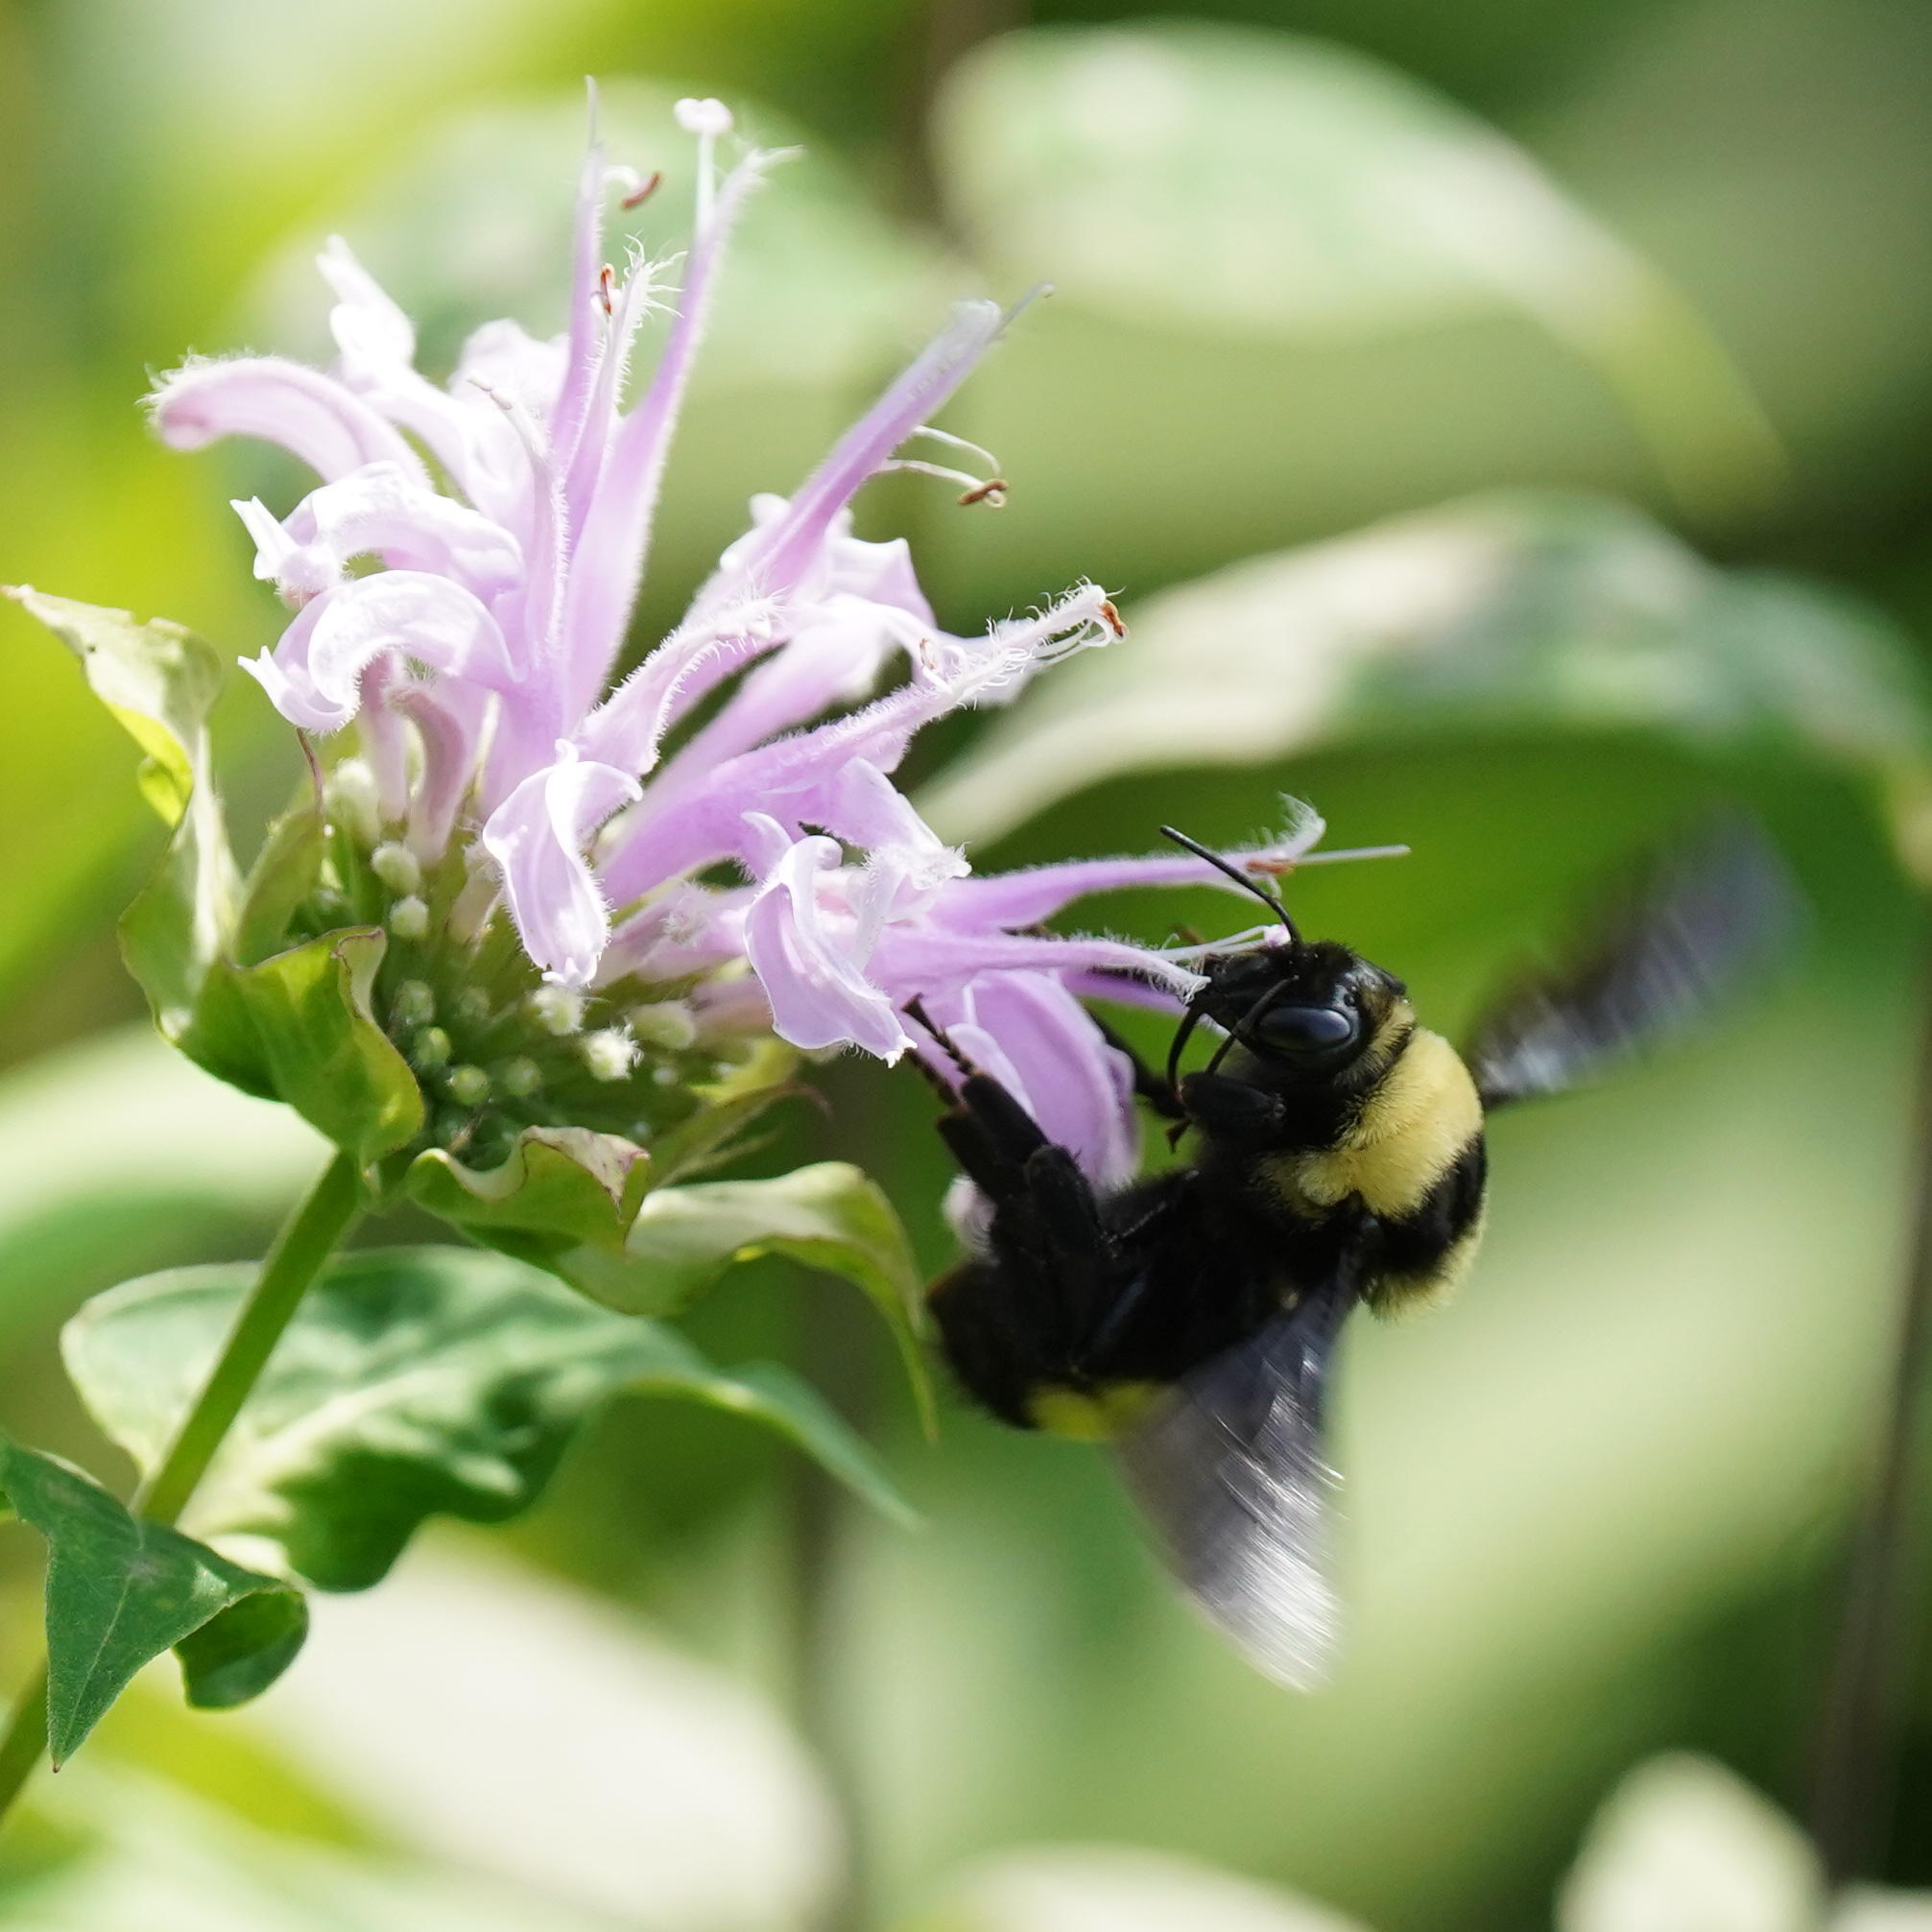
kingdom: Animalia
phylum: Arthropoda
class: Insecta
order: Hymenoptera
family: Apidae
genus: Bombus
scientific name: Bombus auricomus
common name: Black and gold bumble bee
